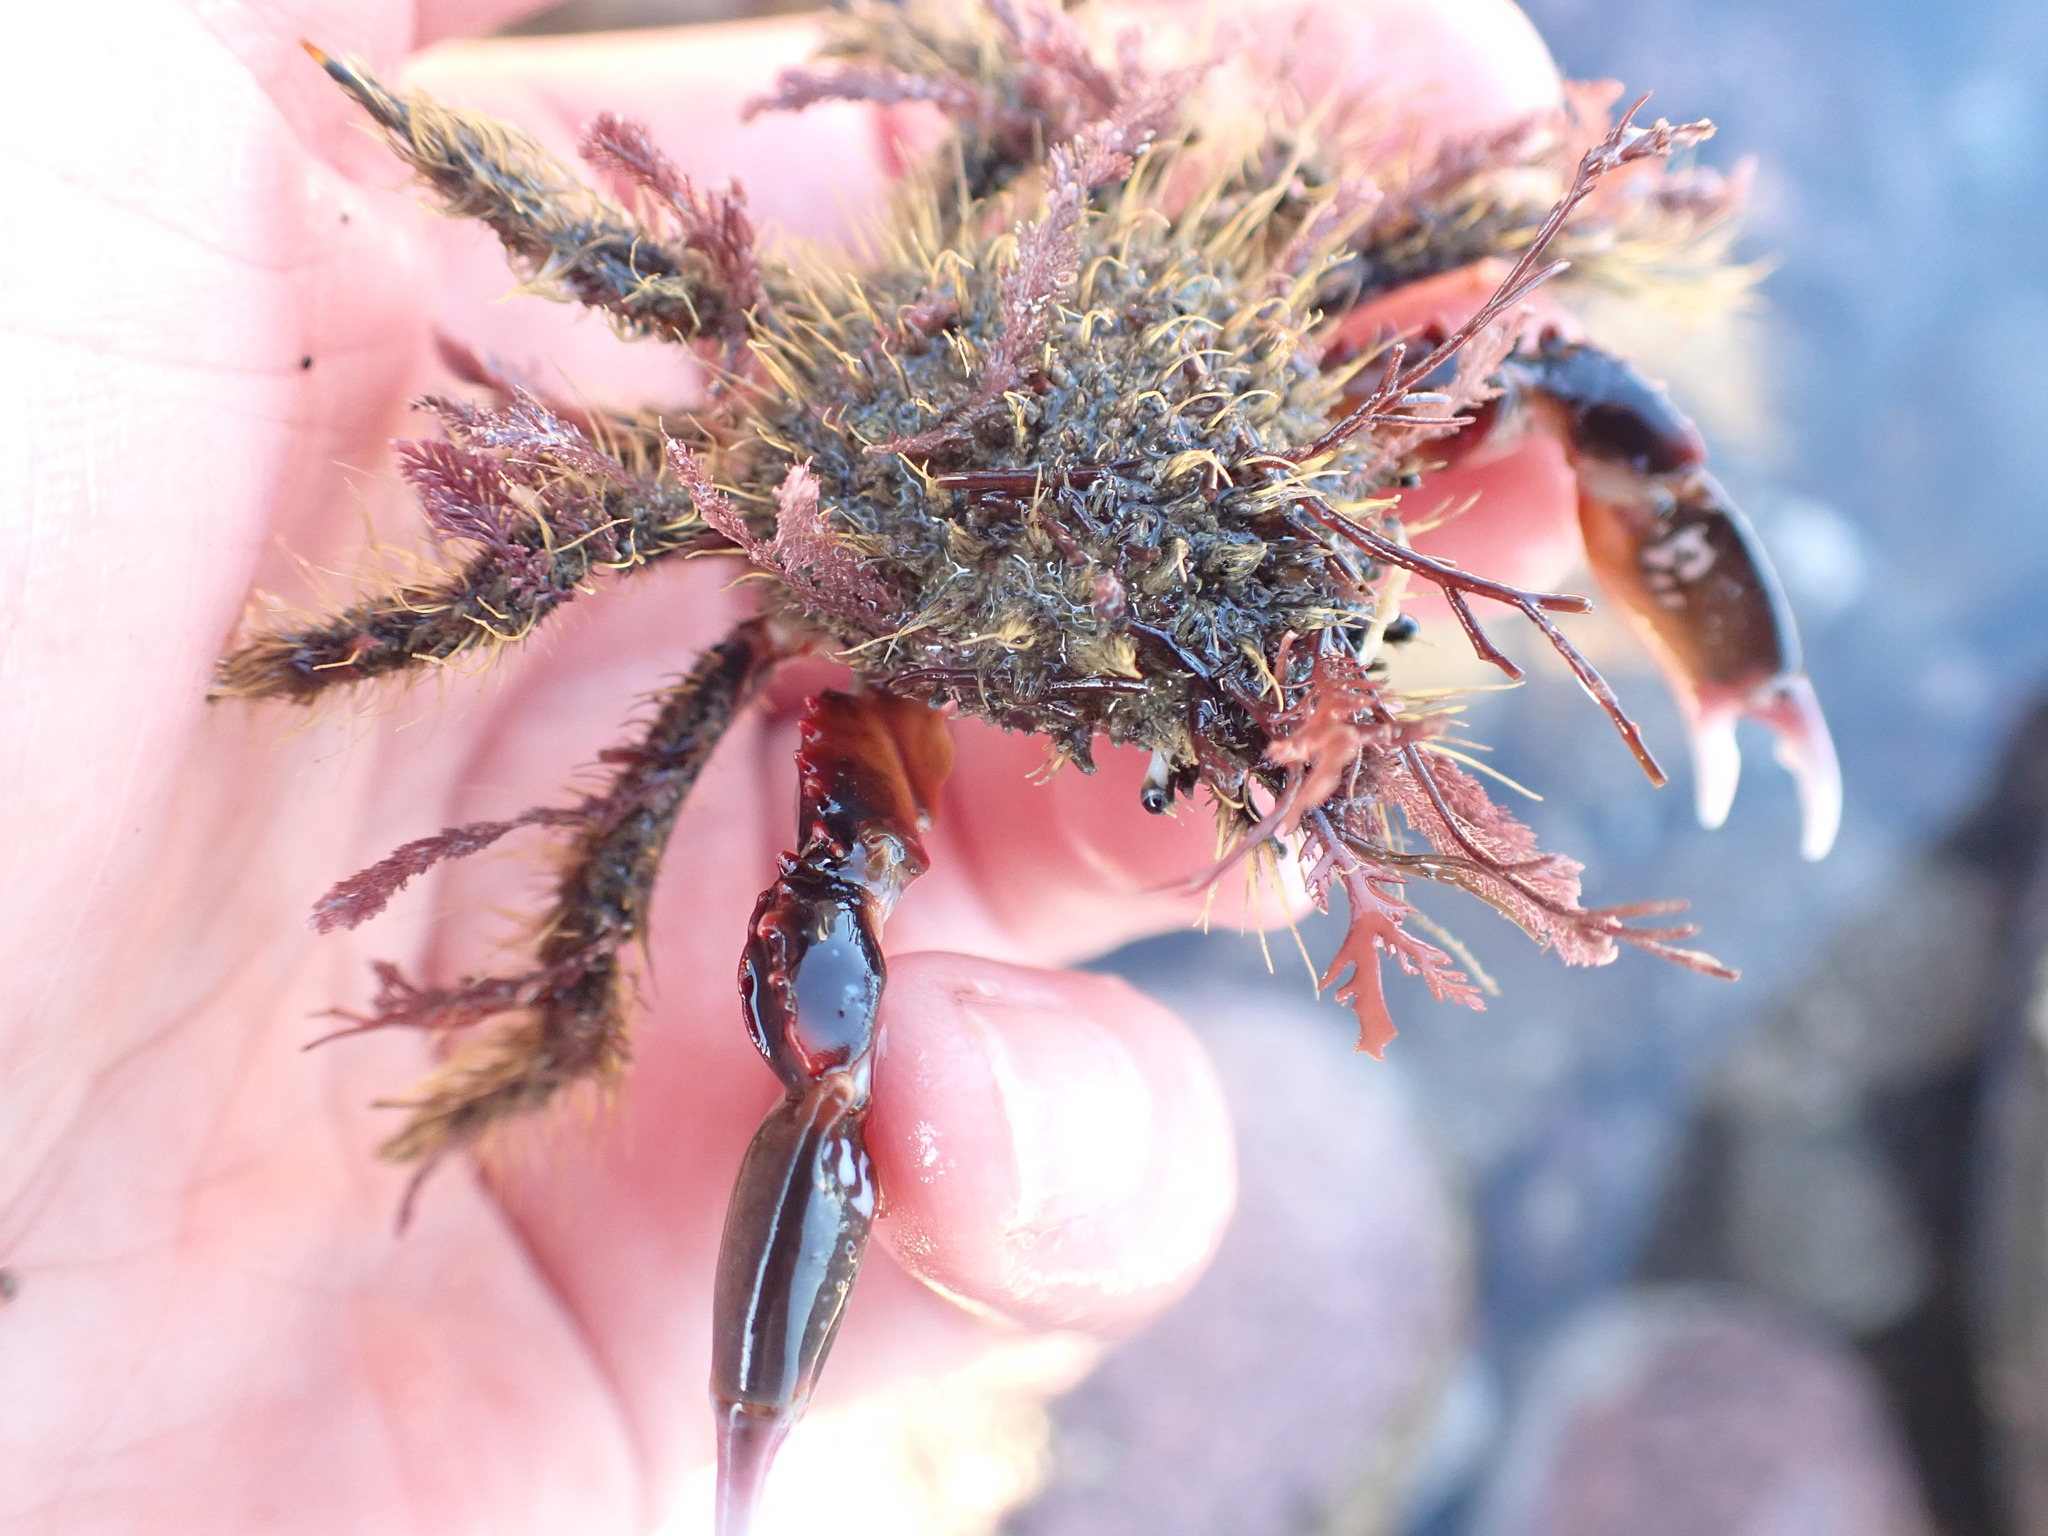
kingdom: Animalia
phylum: Arthropoda
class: Malacostraca
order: Decapoda
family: Majidae
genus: Notomithrax
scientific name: Notomithrax ursus
